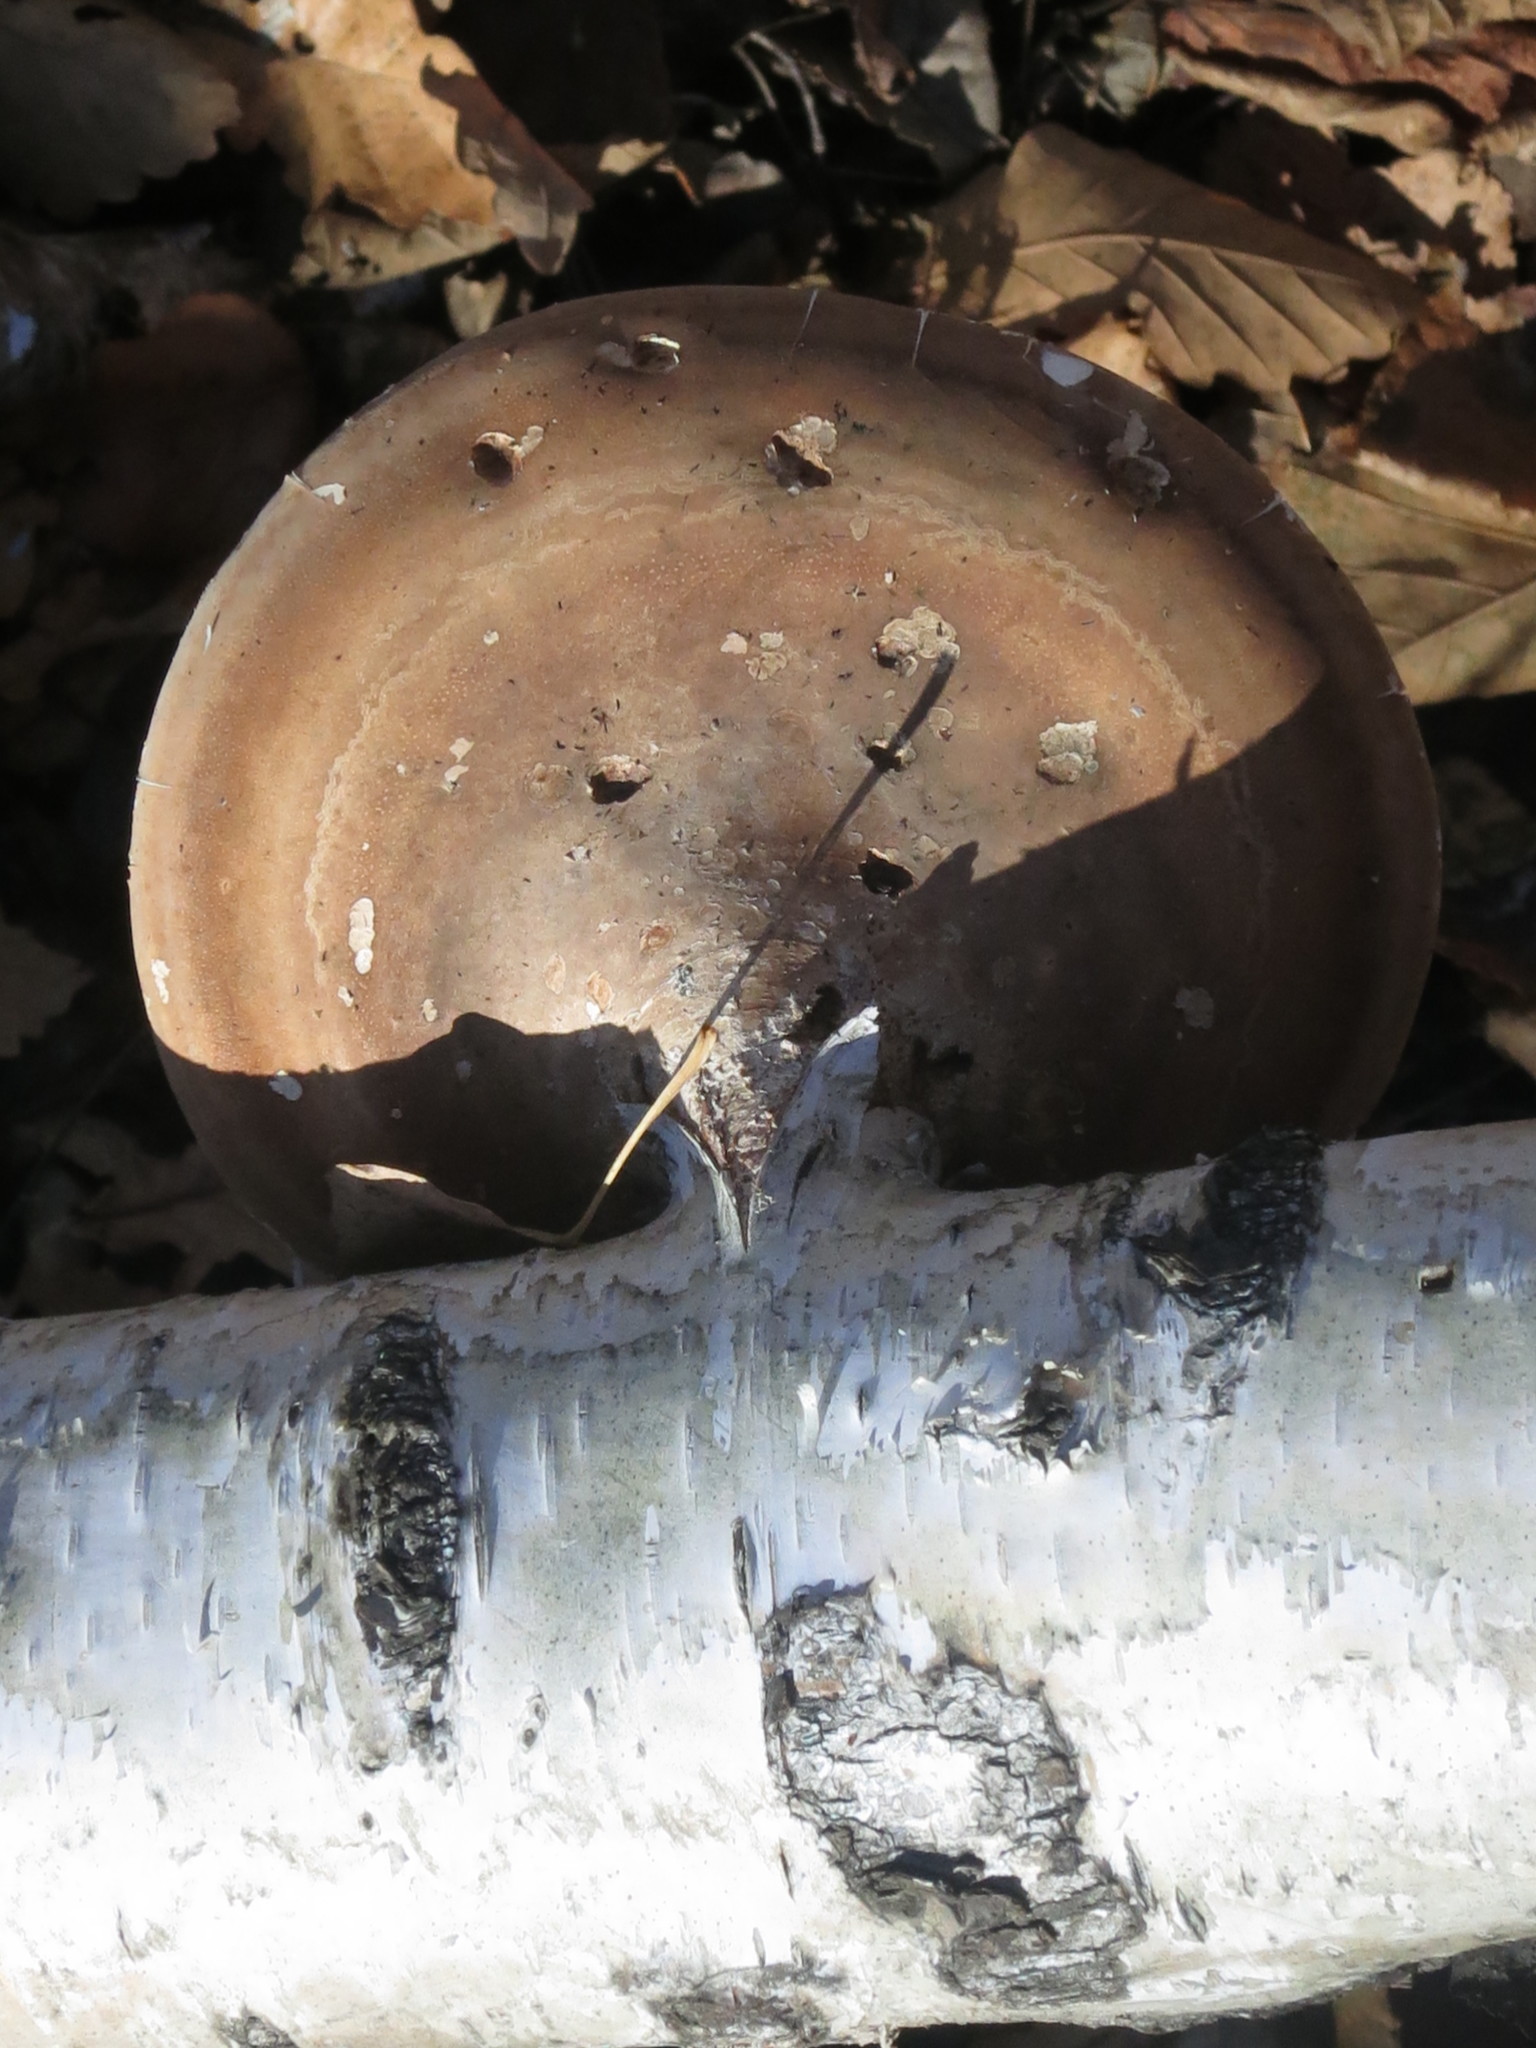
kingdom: Fungi
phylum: Basidiomycota
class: Agaricomycetes
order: Polyporales
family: Fomitopsidaceae
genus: Fomitopsis
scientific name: Fomitopsis betulina
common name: Birch polypore
